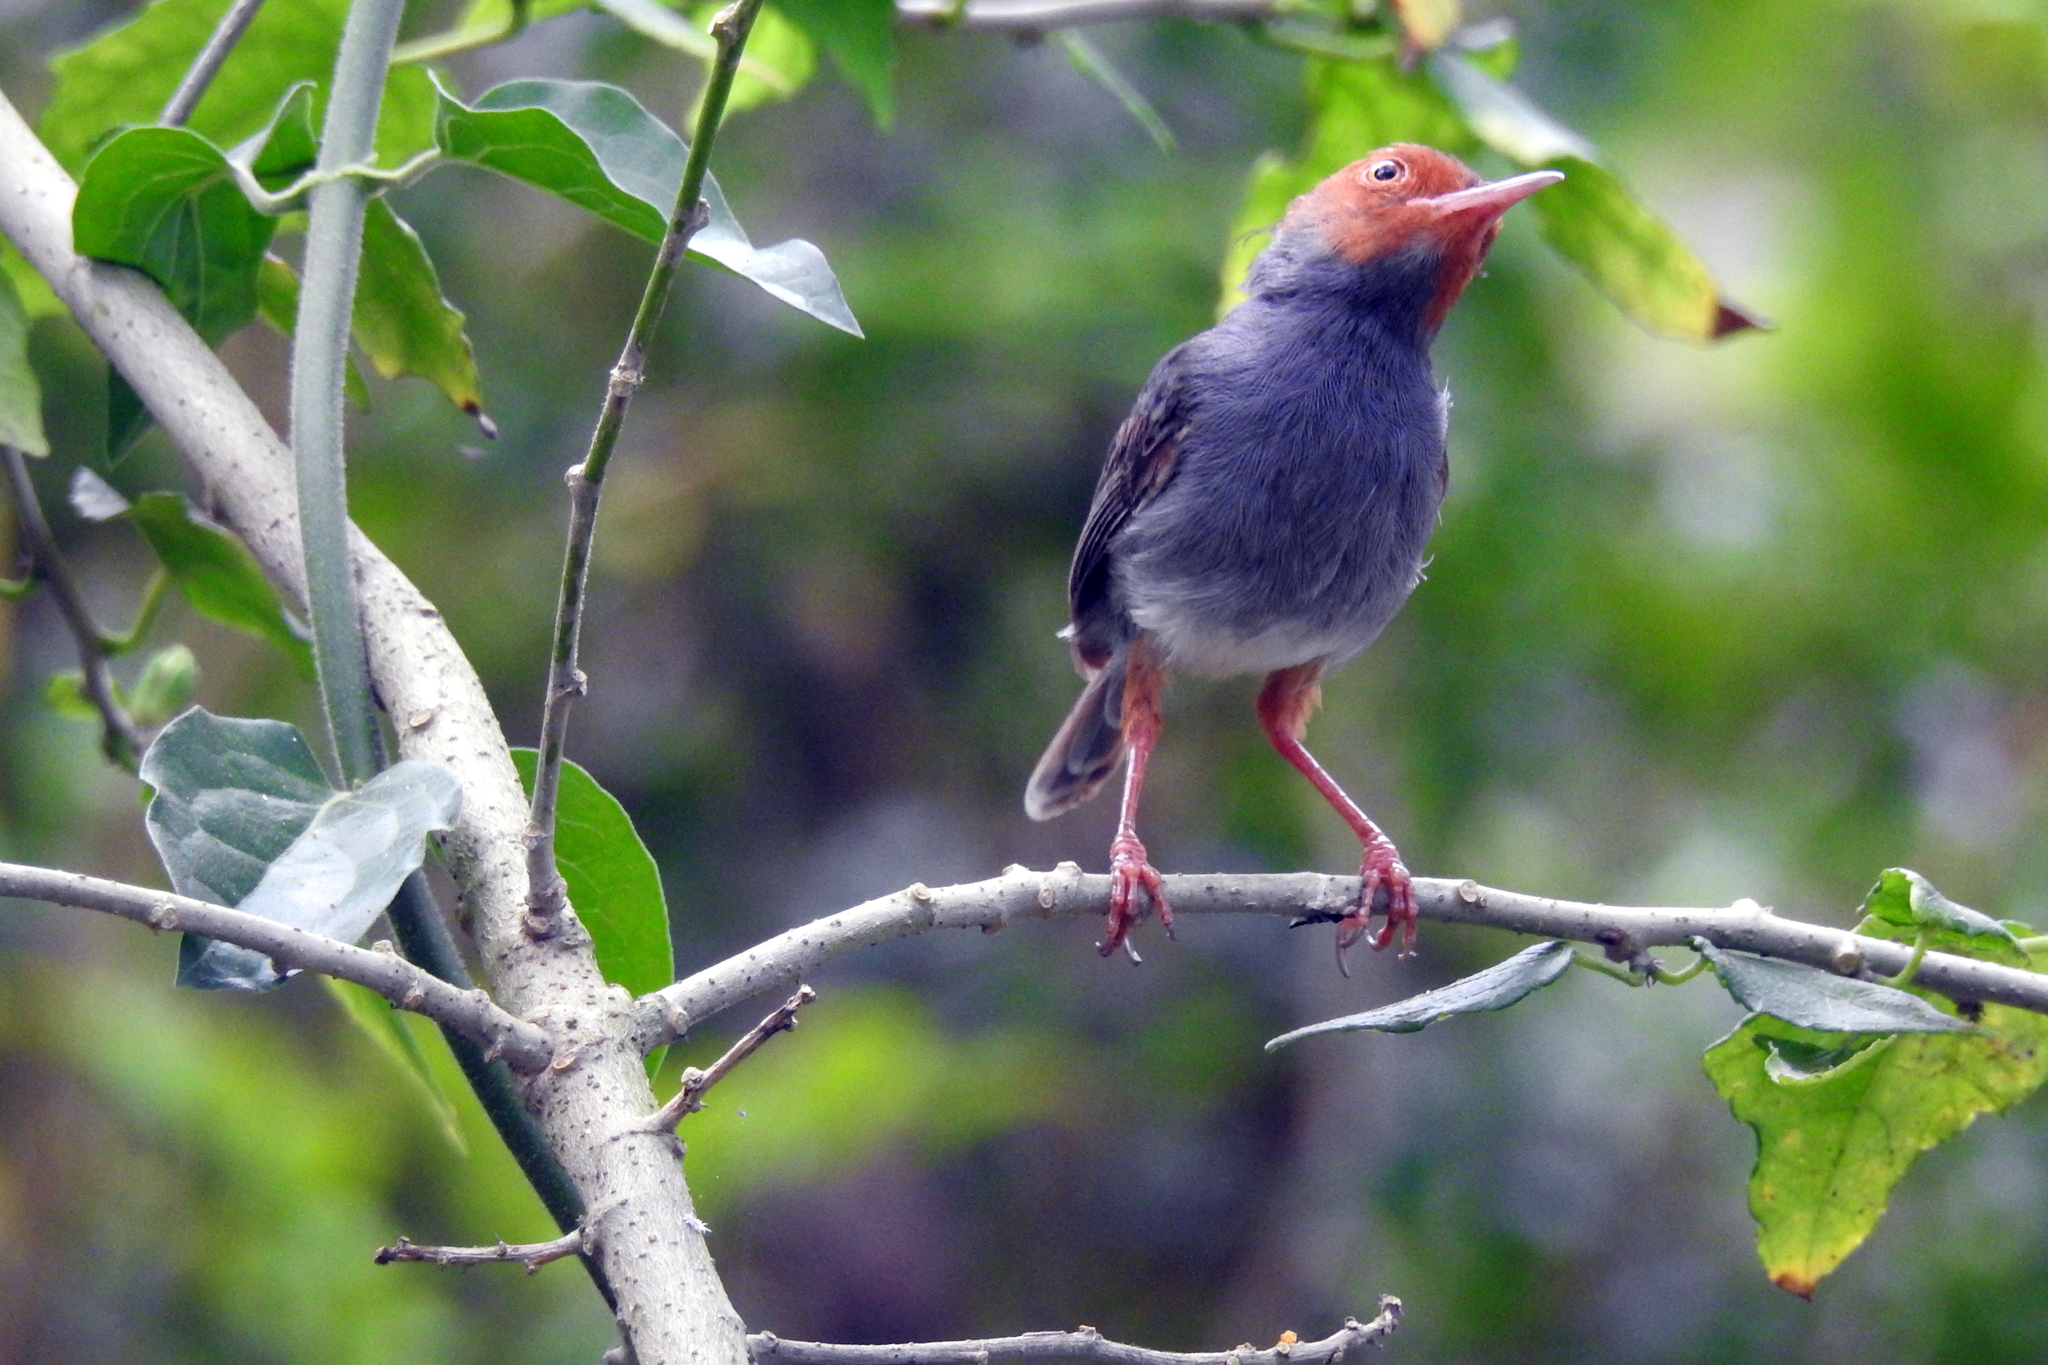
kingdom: Animalia
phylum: Chordata
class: Aves
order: Passeriformes
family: Cisticolidae
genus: Orthotomus
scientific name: Orthotomus ruficeps
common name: Ashy tailorbird
